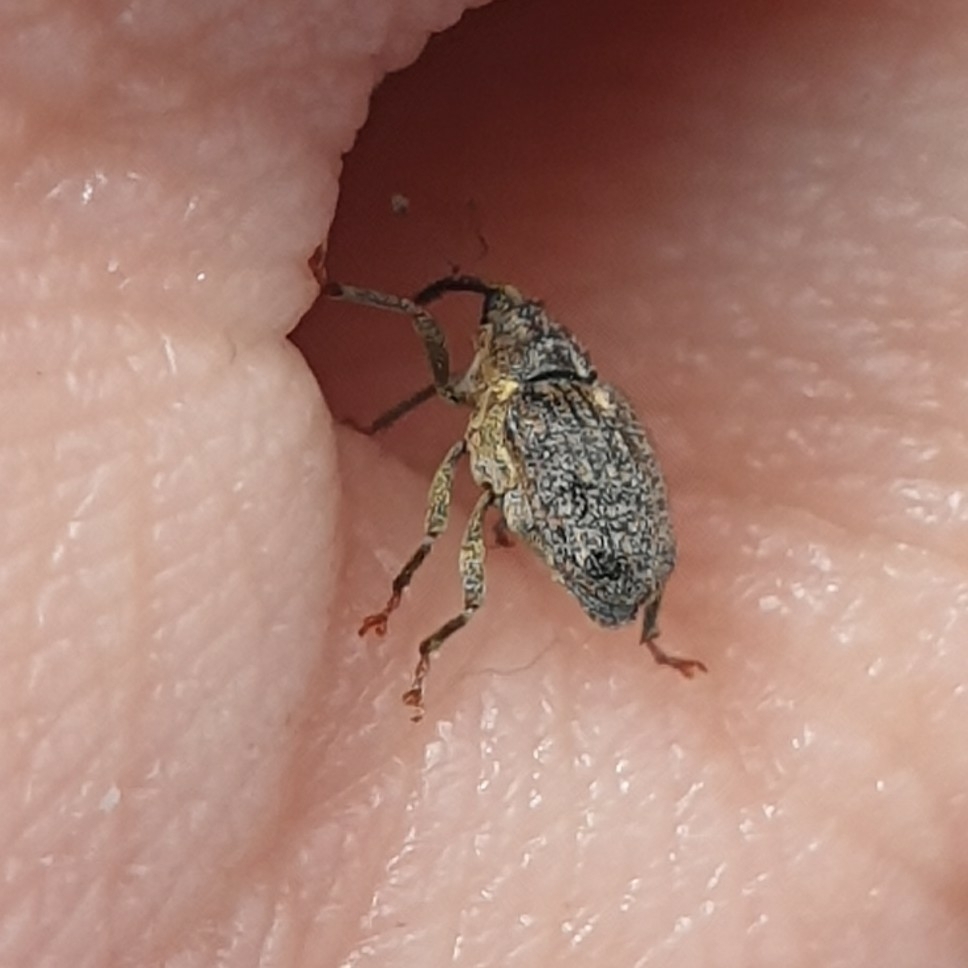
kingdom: Animalia
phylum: Arthropoda
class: Insecta
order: Coleoptera
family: Curculionidae
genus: Ceutorhynchus
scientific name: Ceutorhynchus pallidactylus
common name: Cabbage stem weavil
